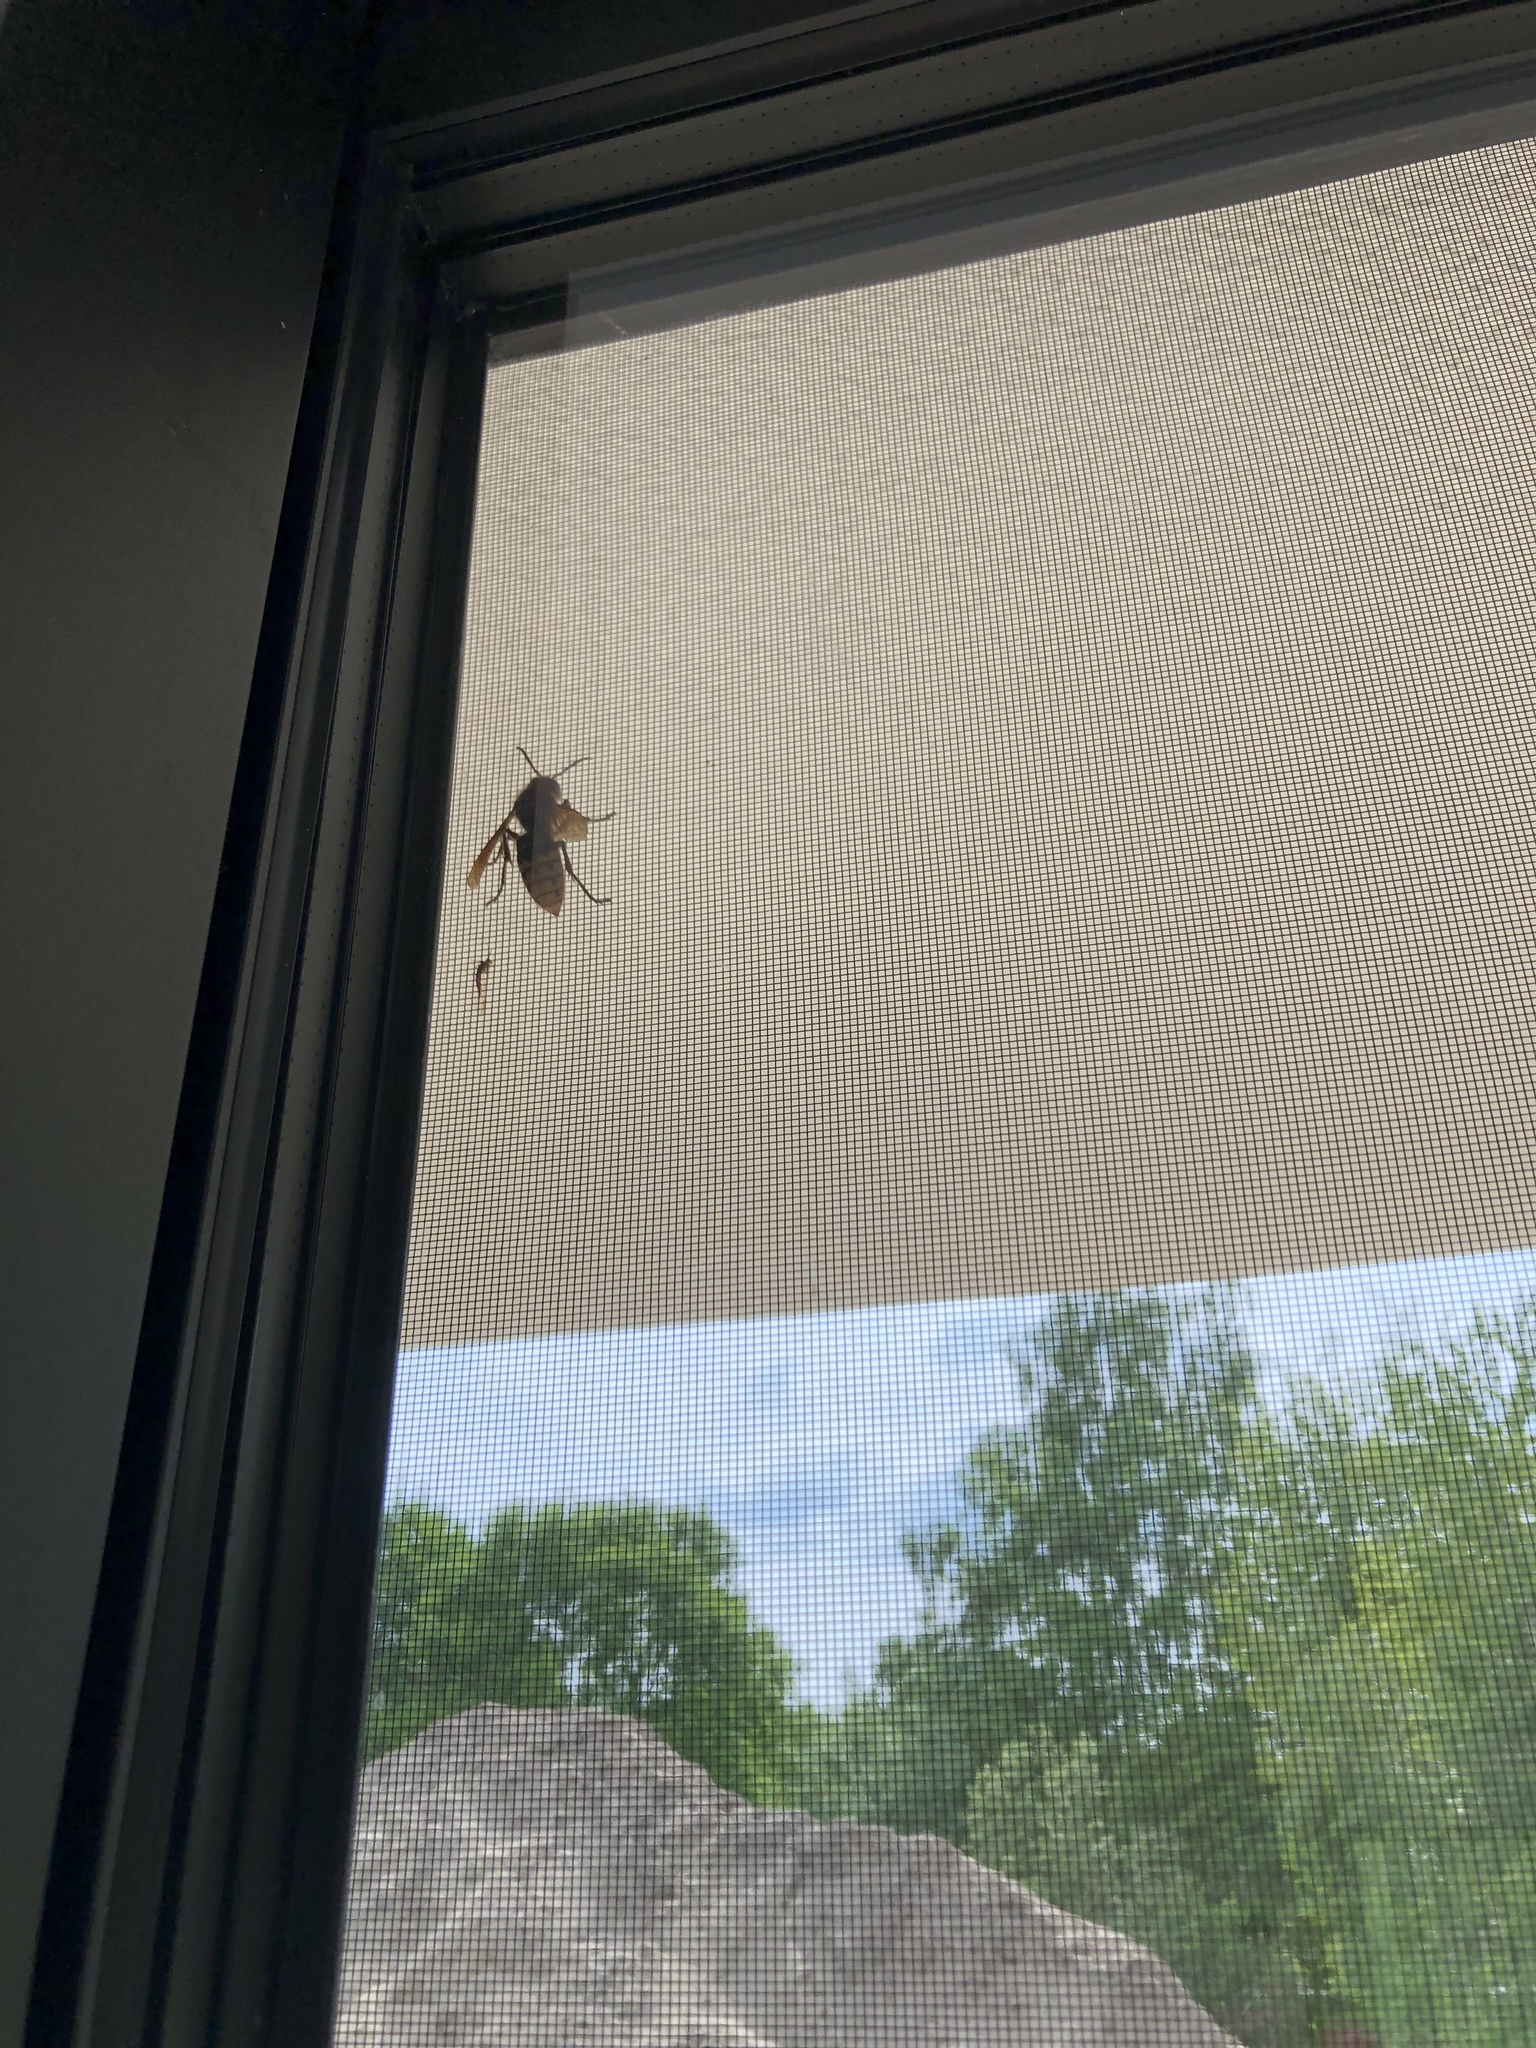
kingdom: Animalia
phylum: Arthropoda
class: Insecta
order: Hymenoptera
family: Vespidae
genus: Vespa
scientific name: Vespa crabro
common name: Hornet
